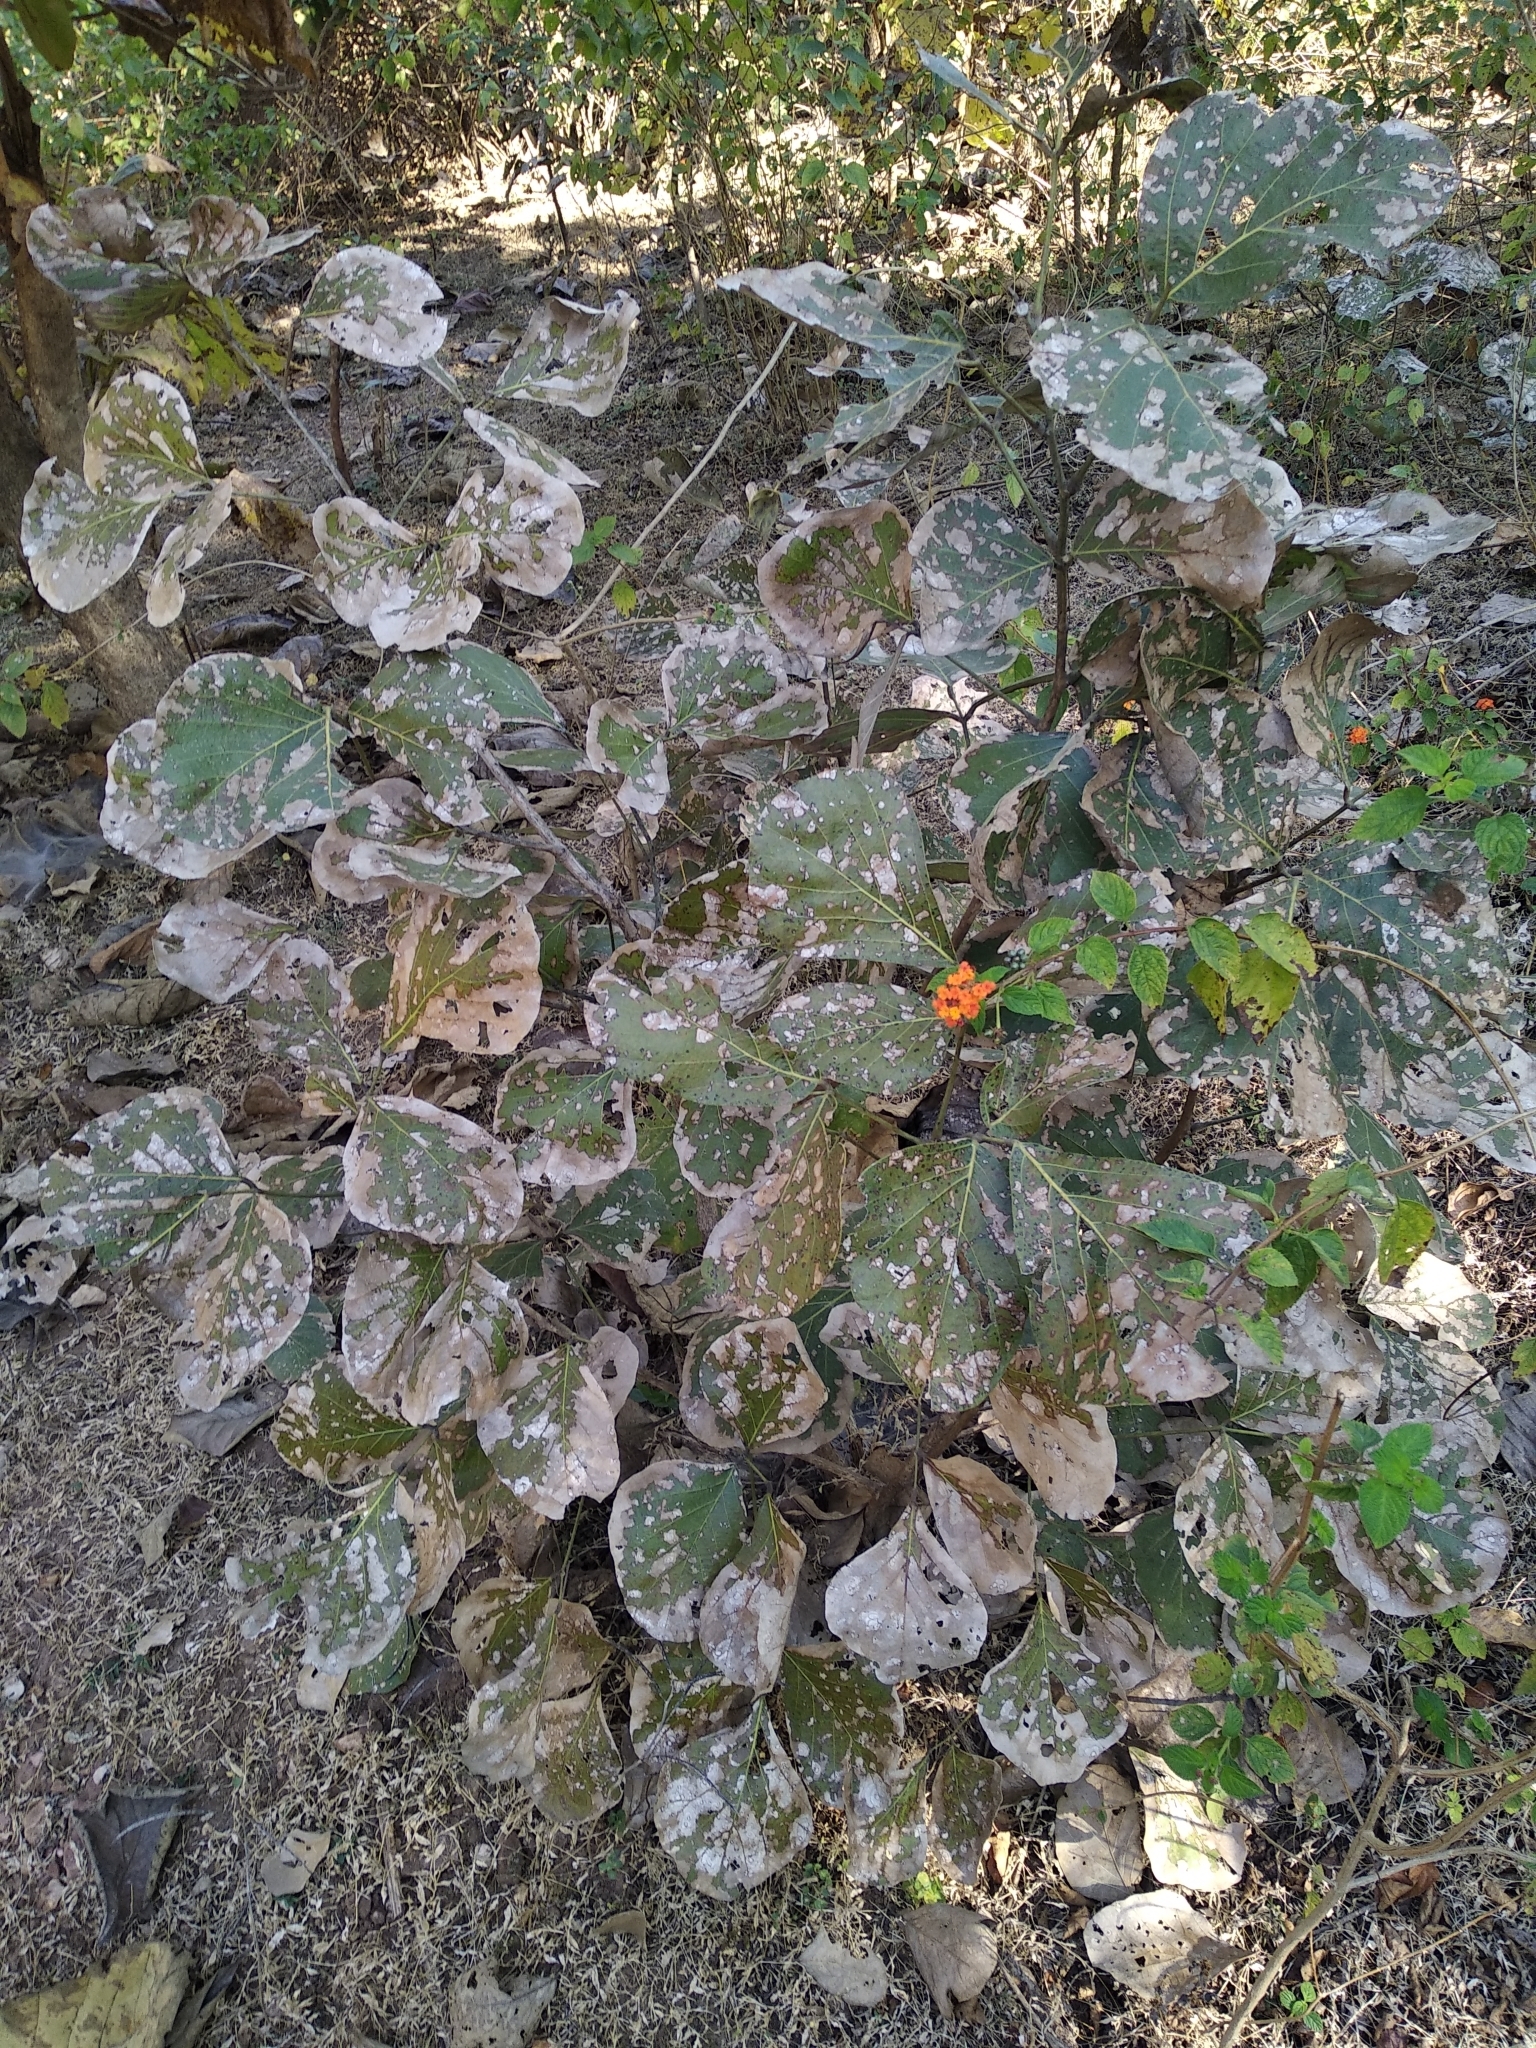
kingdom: Plantae
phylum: Tracheophyta
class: Magnoliopsida
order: Fabales
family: Fabaceae
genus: Butea
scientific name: Butea monosperma
